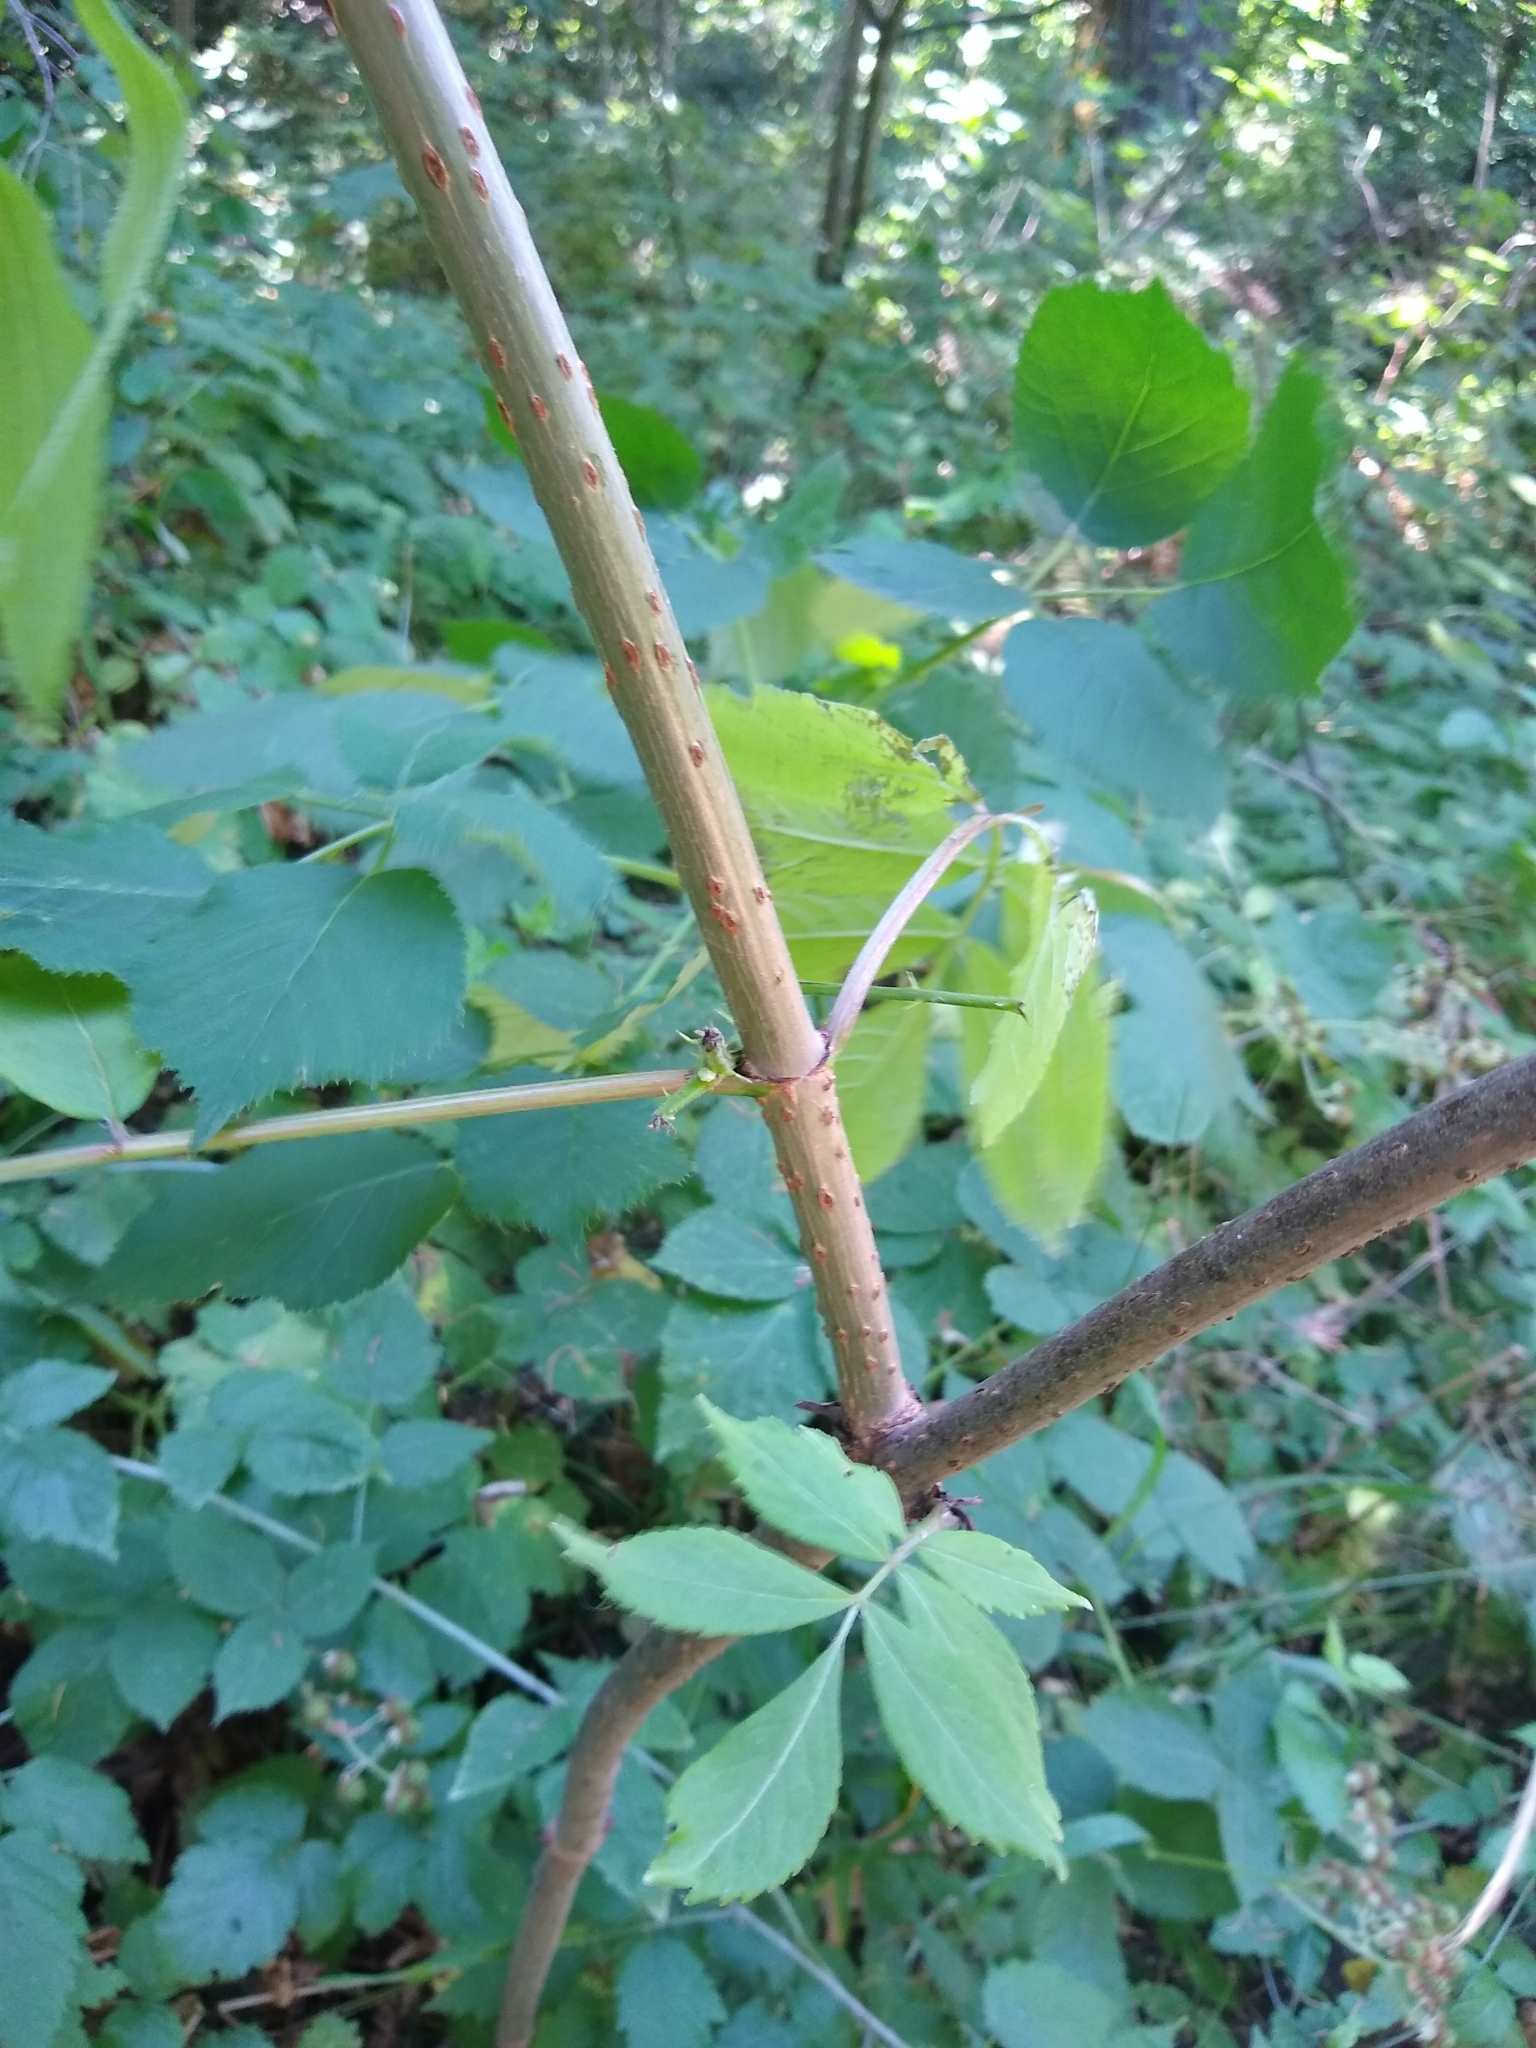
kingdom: Plantae
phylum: Tracheophyta
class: Magnoliopsida
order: Dipsacales
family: Viburnaceae
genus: Sambucus
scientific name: Sambucus racemosa
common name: Red-berried elder
